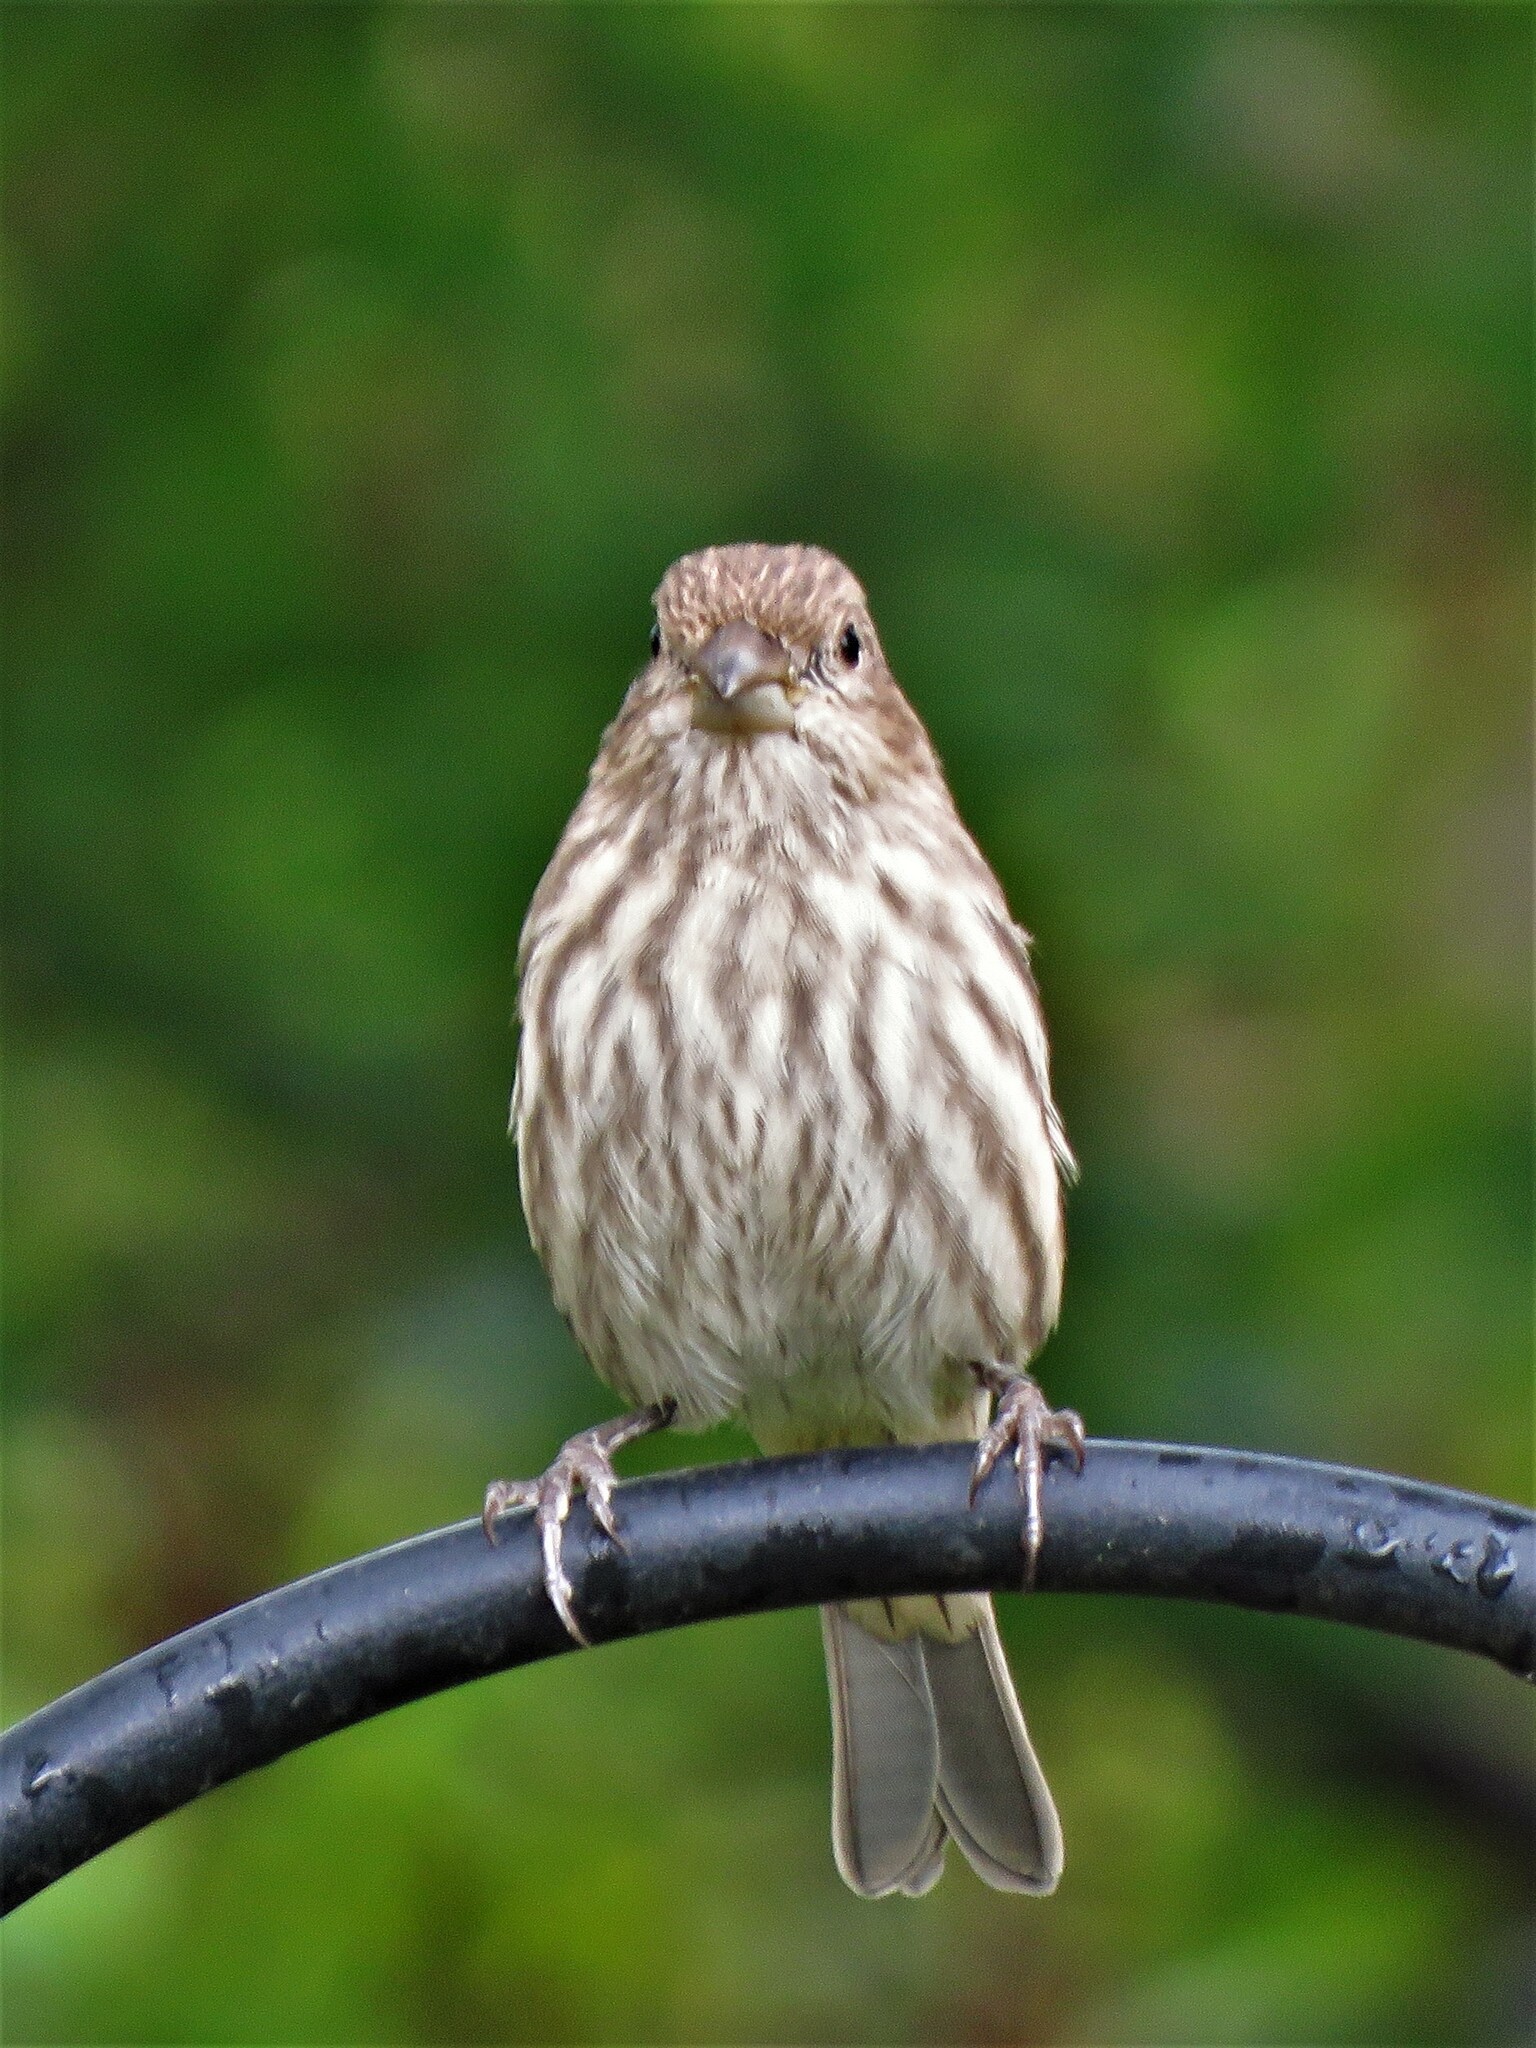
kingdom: Animalia
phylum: Chordata
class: Aves
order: Passeriformes
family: Fringillidae
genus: Haemorhous
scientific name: Haemorhous mexicanus
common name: House finch
